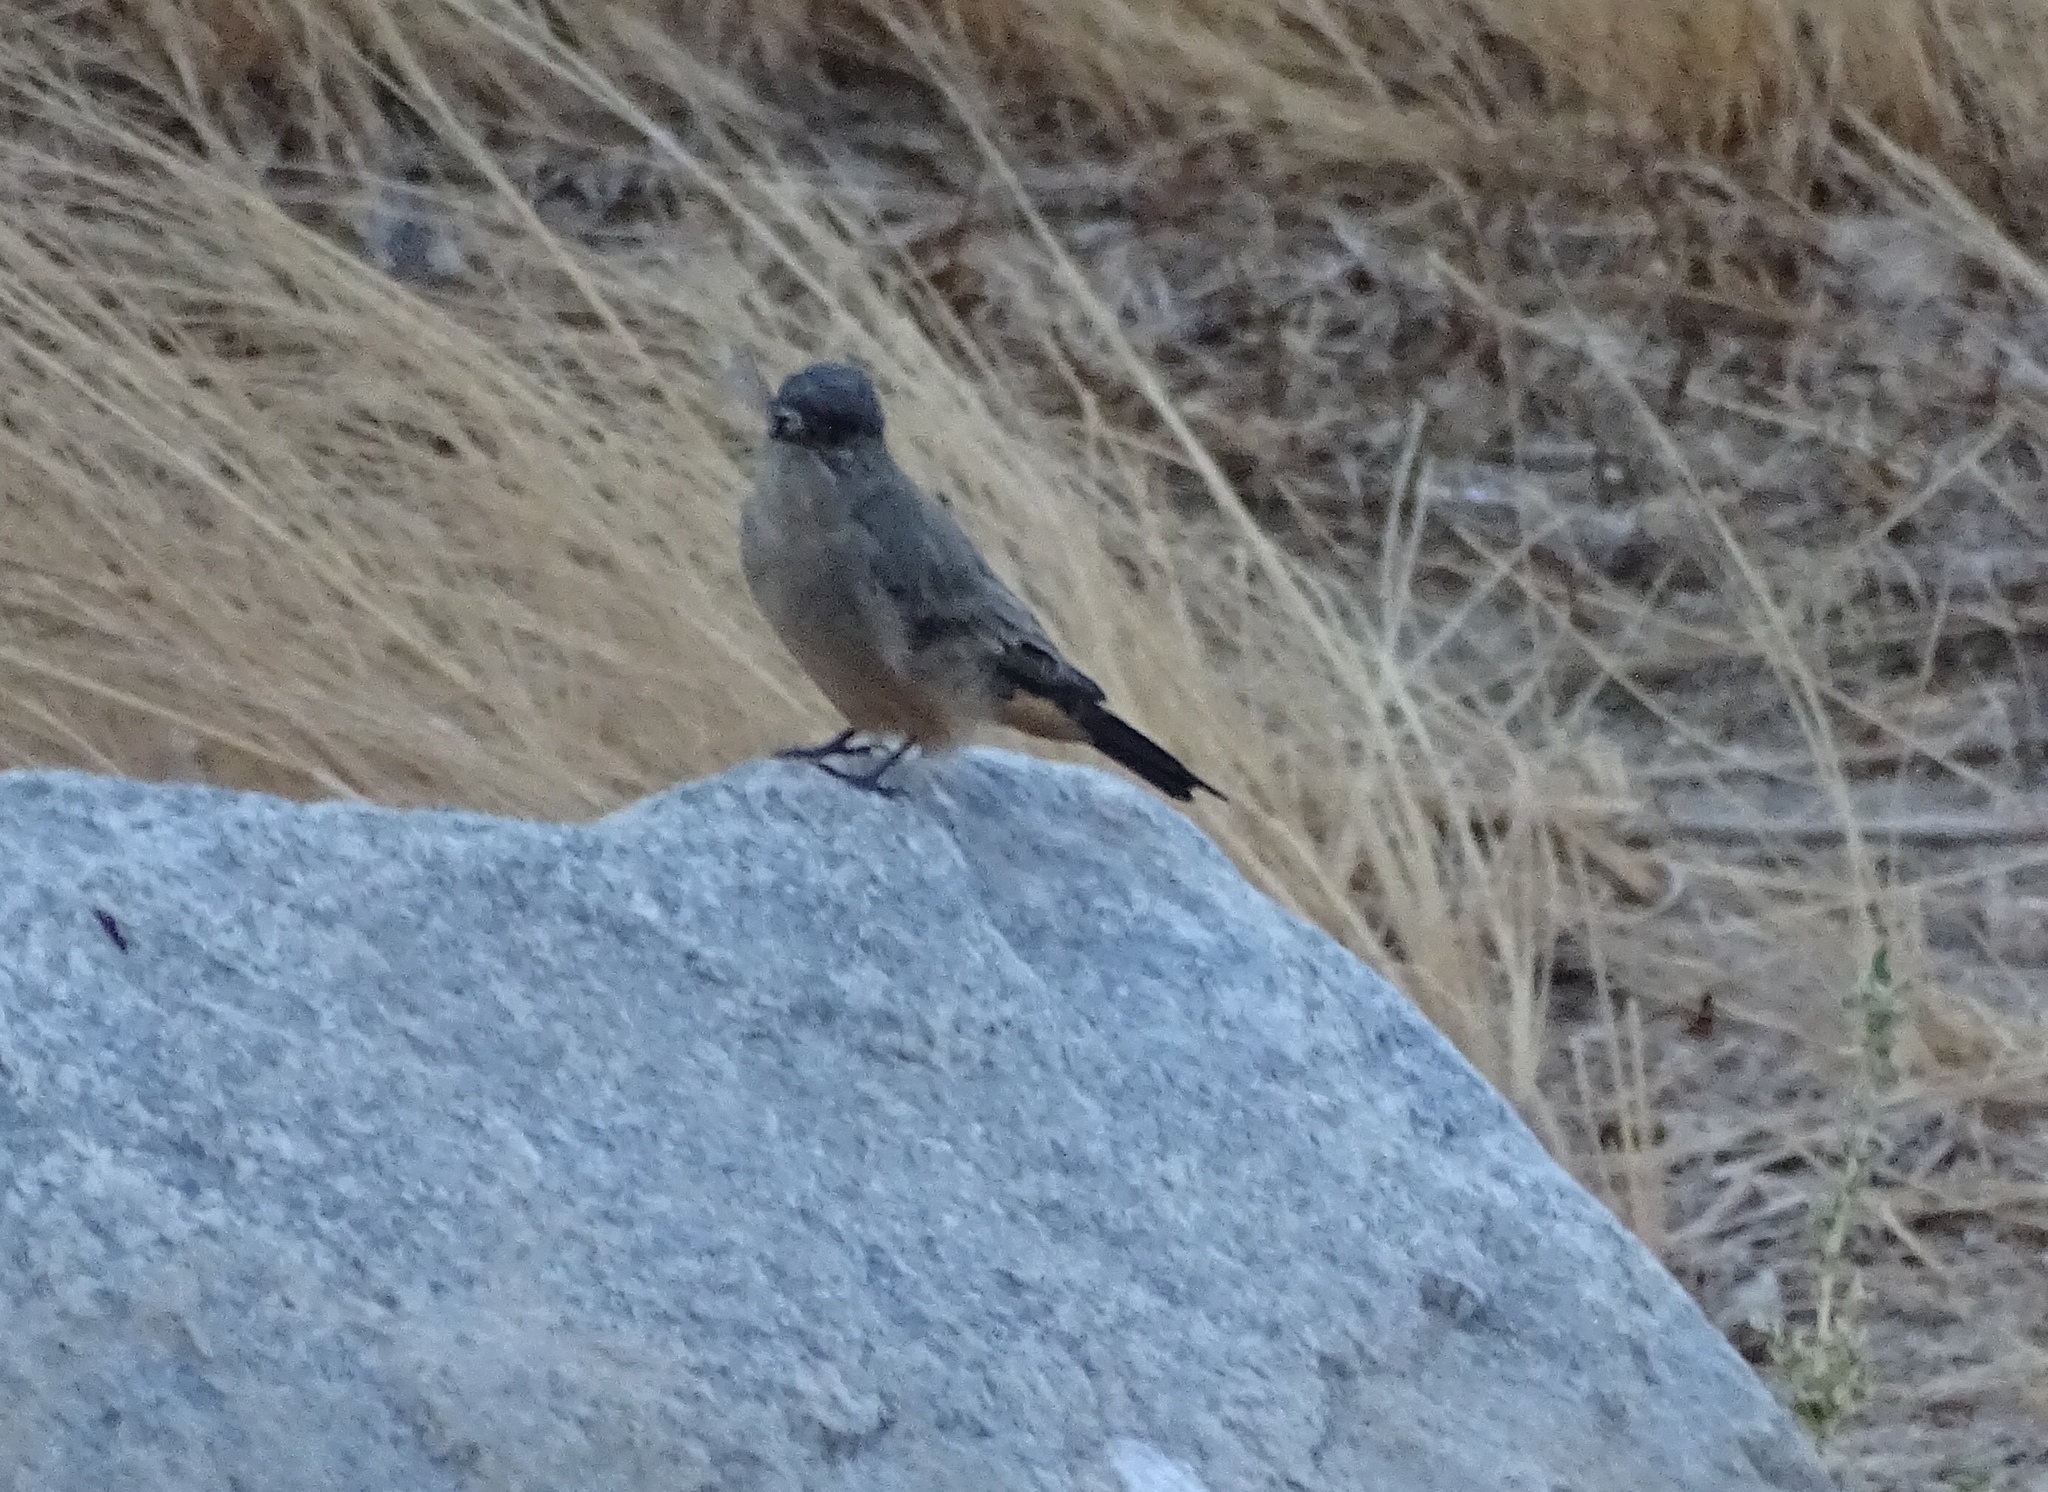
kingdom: Animalia
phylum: Chordata
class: Aves
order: Passeriformes
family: Tyrannidae
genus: Sayornis
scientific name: Sayornis saya
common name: Say's phoebe
